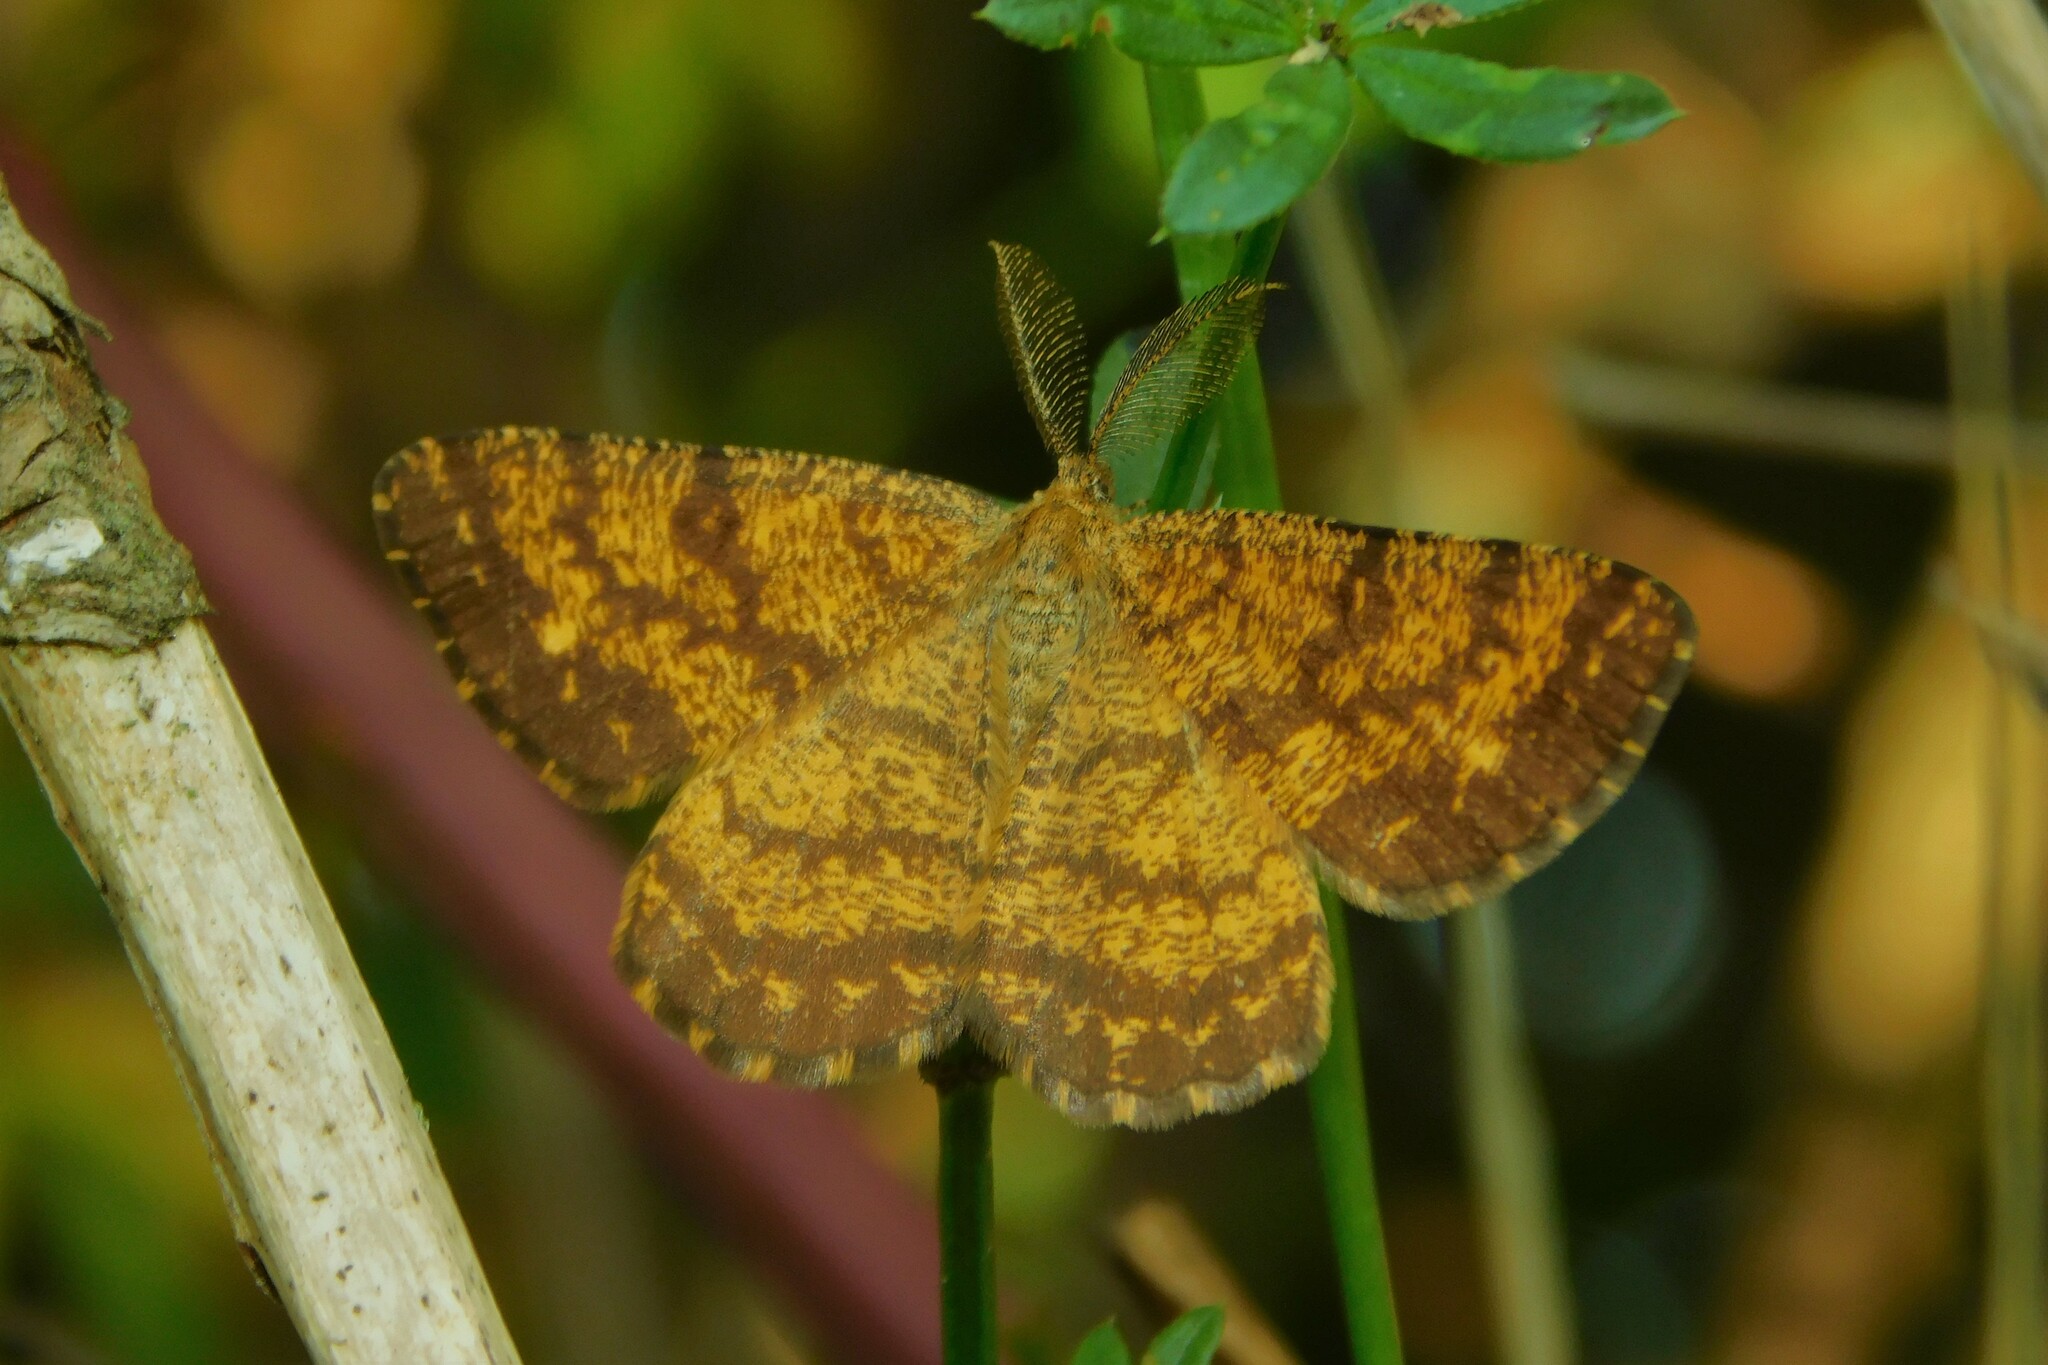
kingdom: Animalia
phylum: Arthropoda
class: Insecta
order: Lepidoptera
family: Geometridae
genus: Ematurga
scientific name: Ematurga atomaria
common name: Common heath
